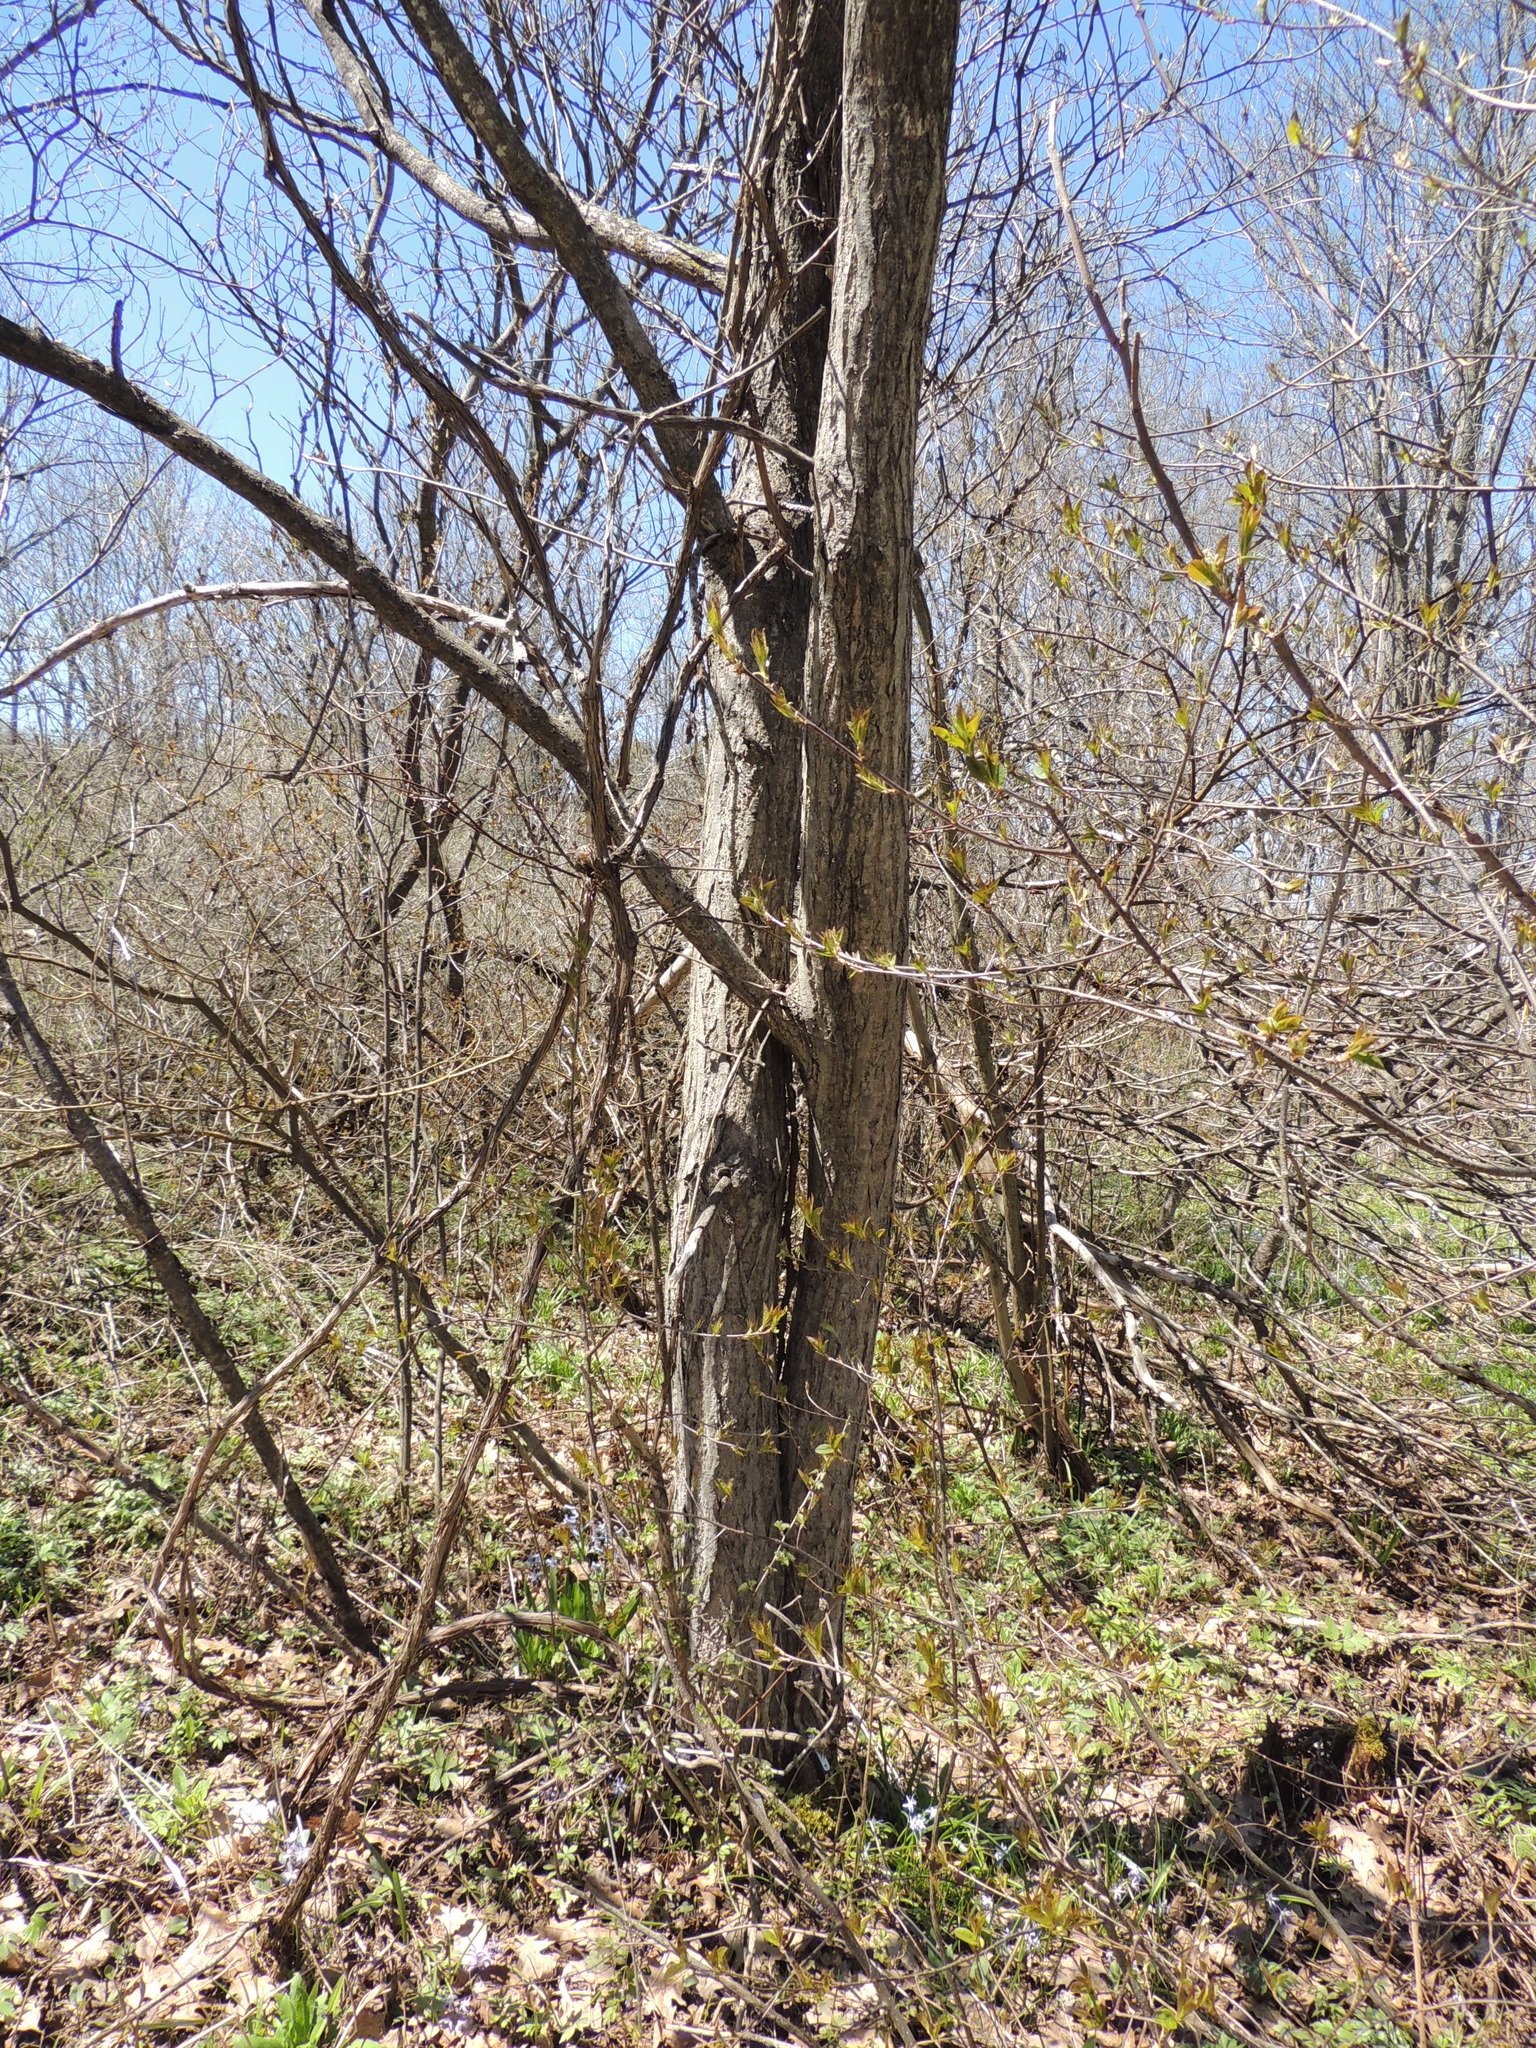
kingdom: Plantae
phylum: Tracheophyta
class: Magnoliopsida
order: Fagales
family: Juglandaceae
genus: Juglans
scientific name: Juglans cinerea
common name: Butternut
